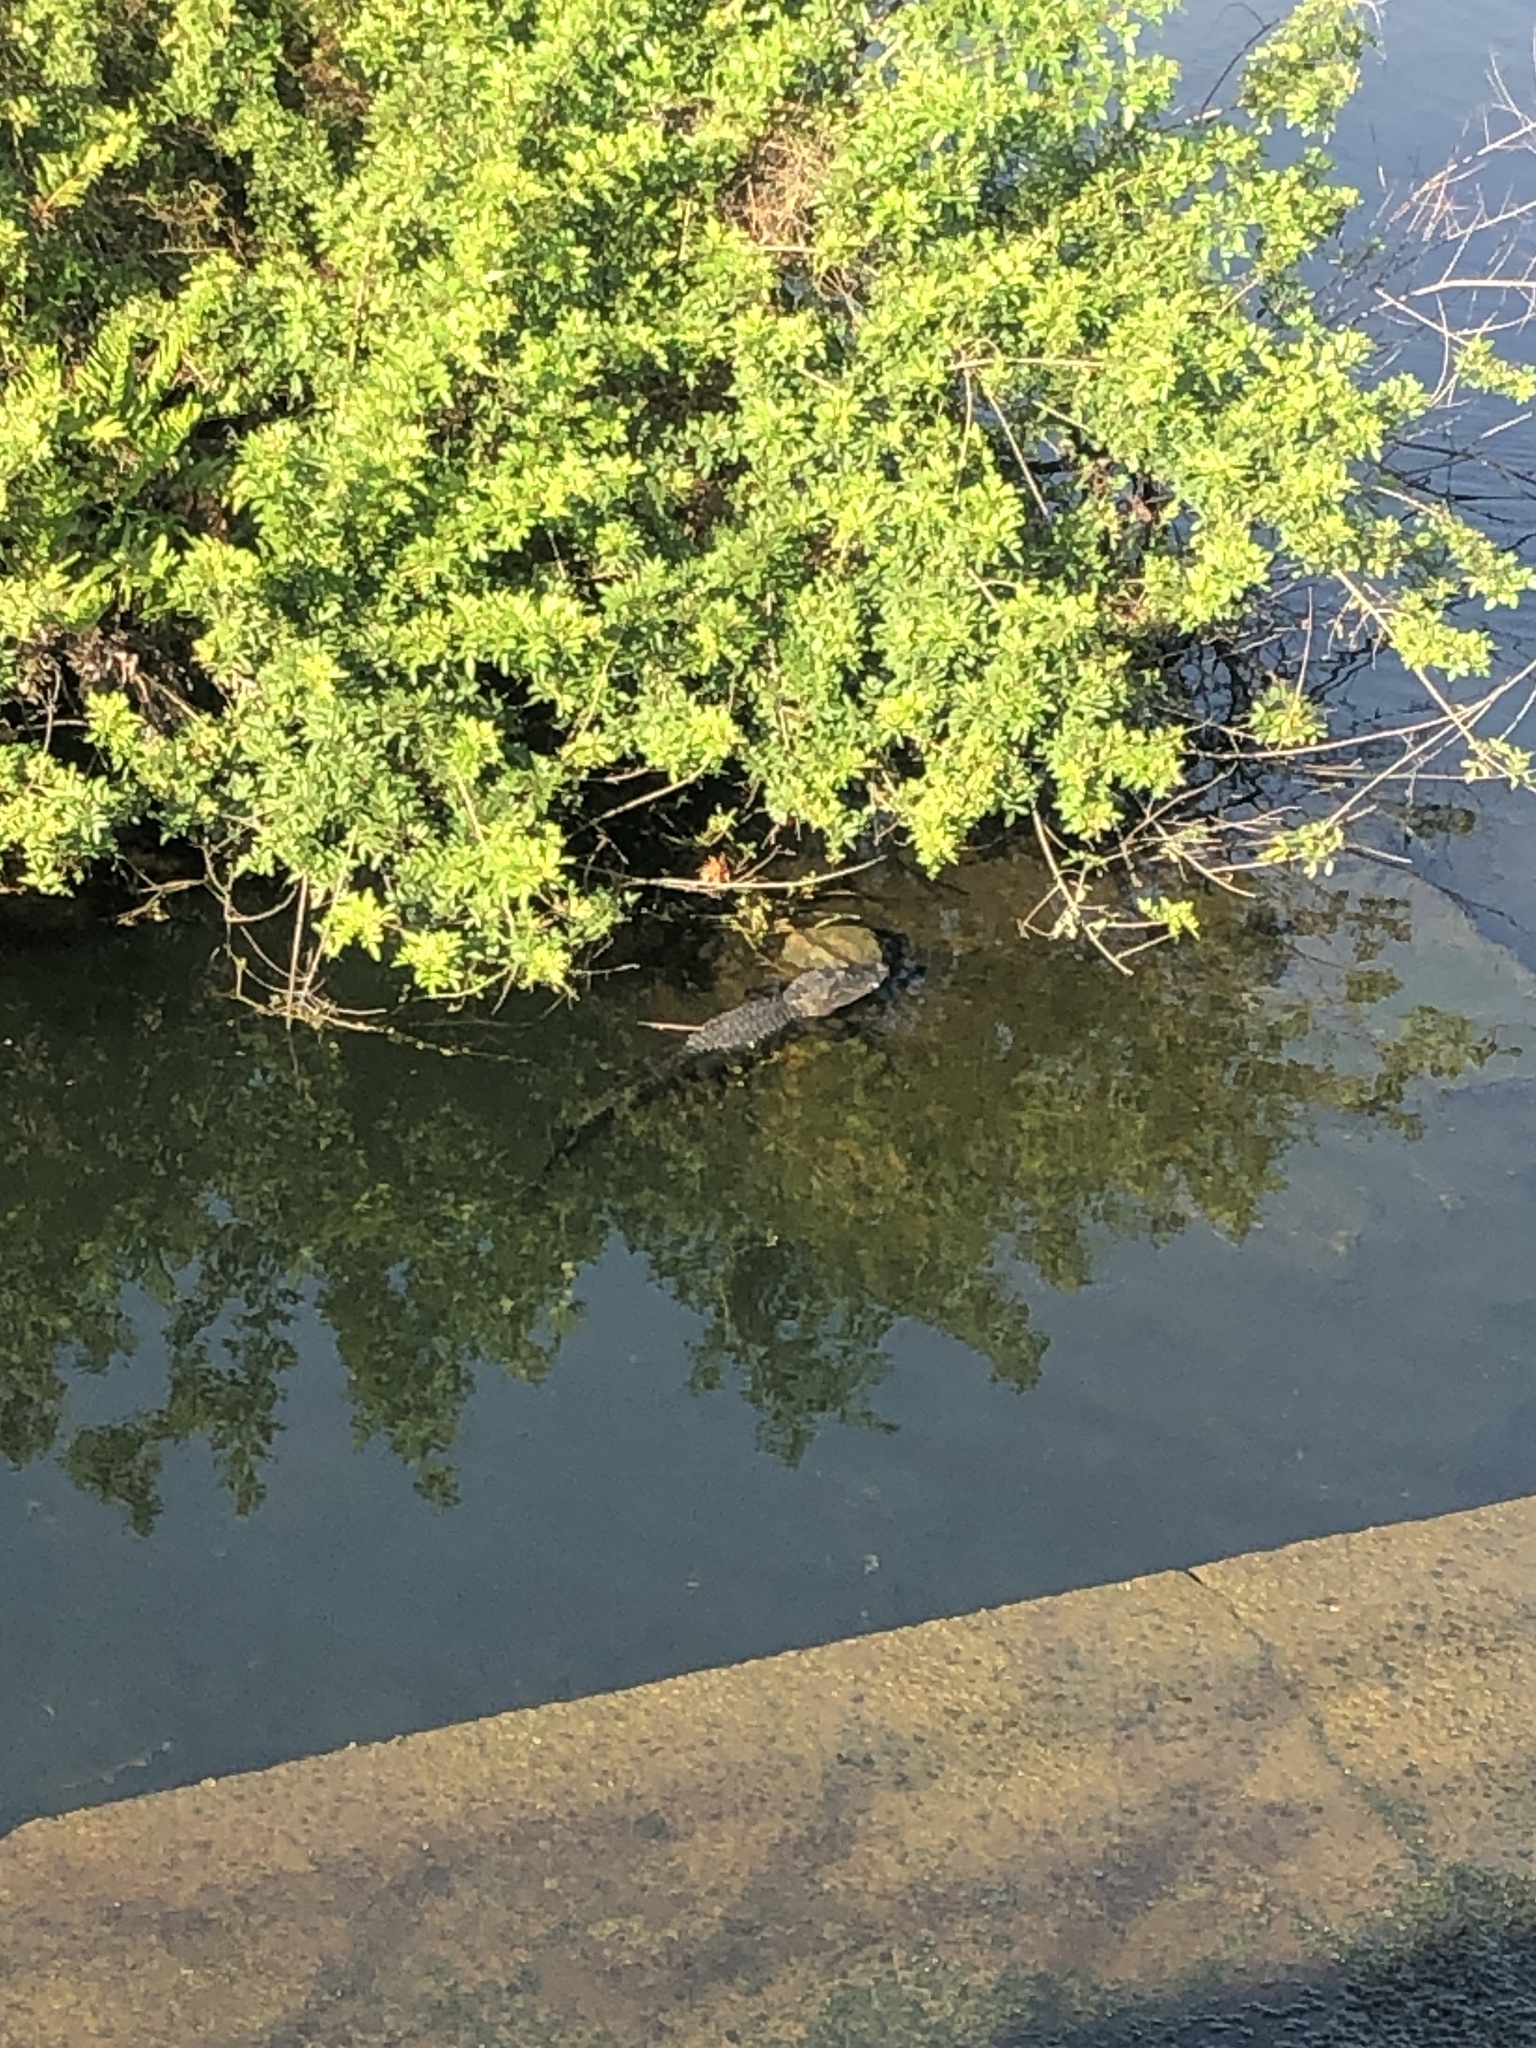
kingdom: Animalia
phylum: Chordata
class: Crocodylia
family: Alligatoridae
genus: Alligator
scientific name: Alligator mississippiensis
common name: American alligator
